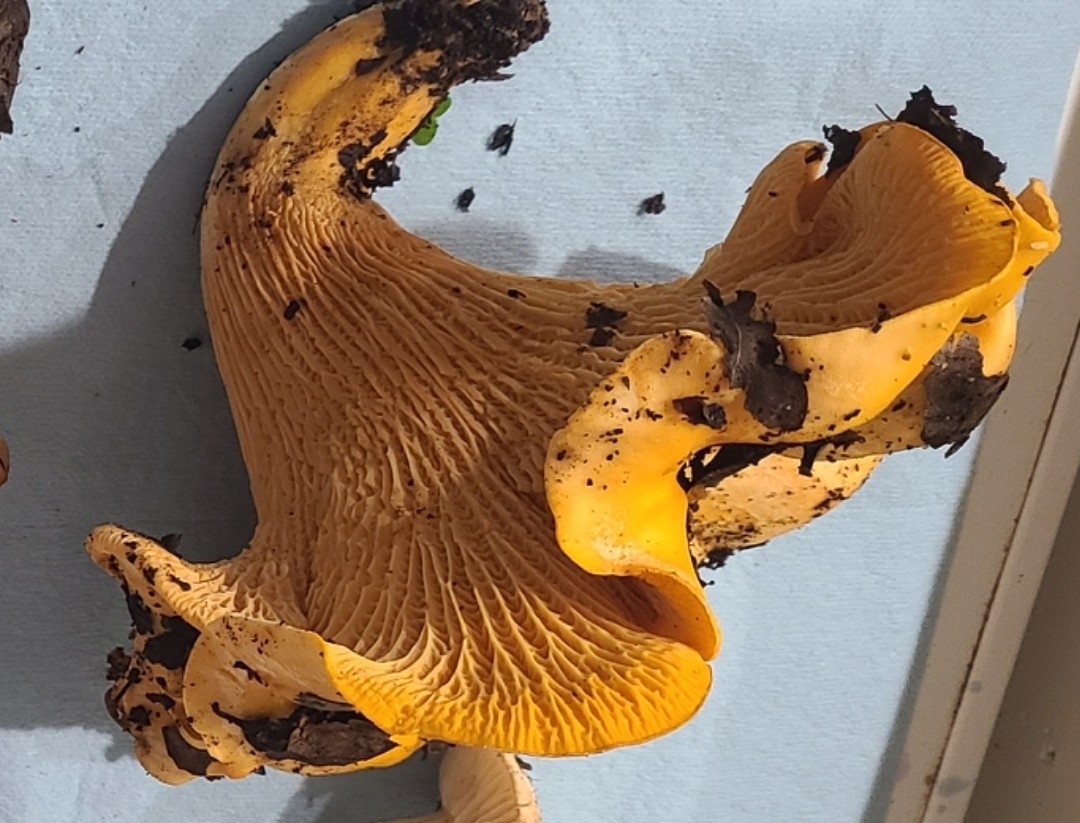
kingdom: Fungi
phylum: Basidiomycota
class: Agaricomycetes
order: Cantharellales
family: Hydnaceae
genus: Cantharellus
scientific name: Cantharellus californicus
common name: California golden chanterelle
